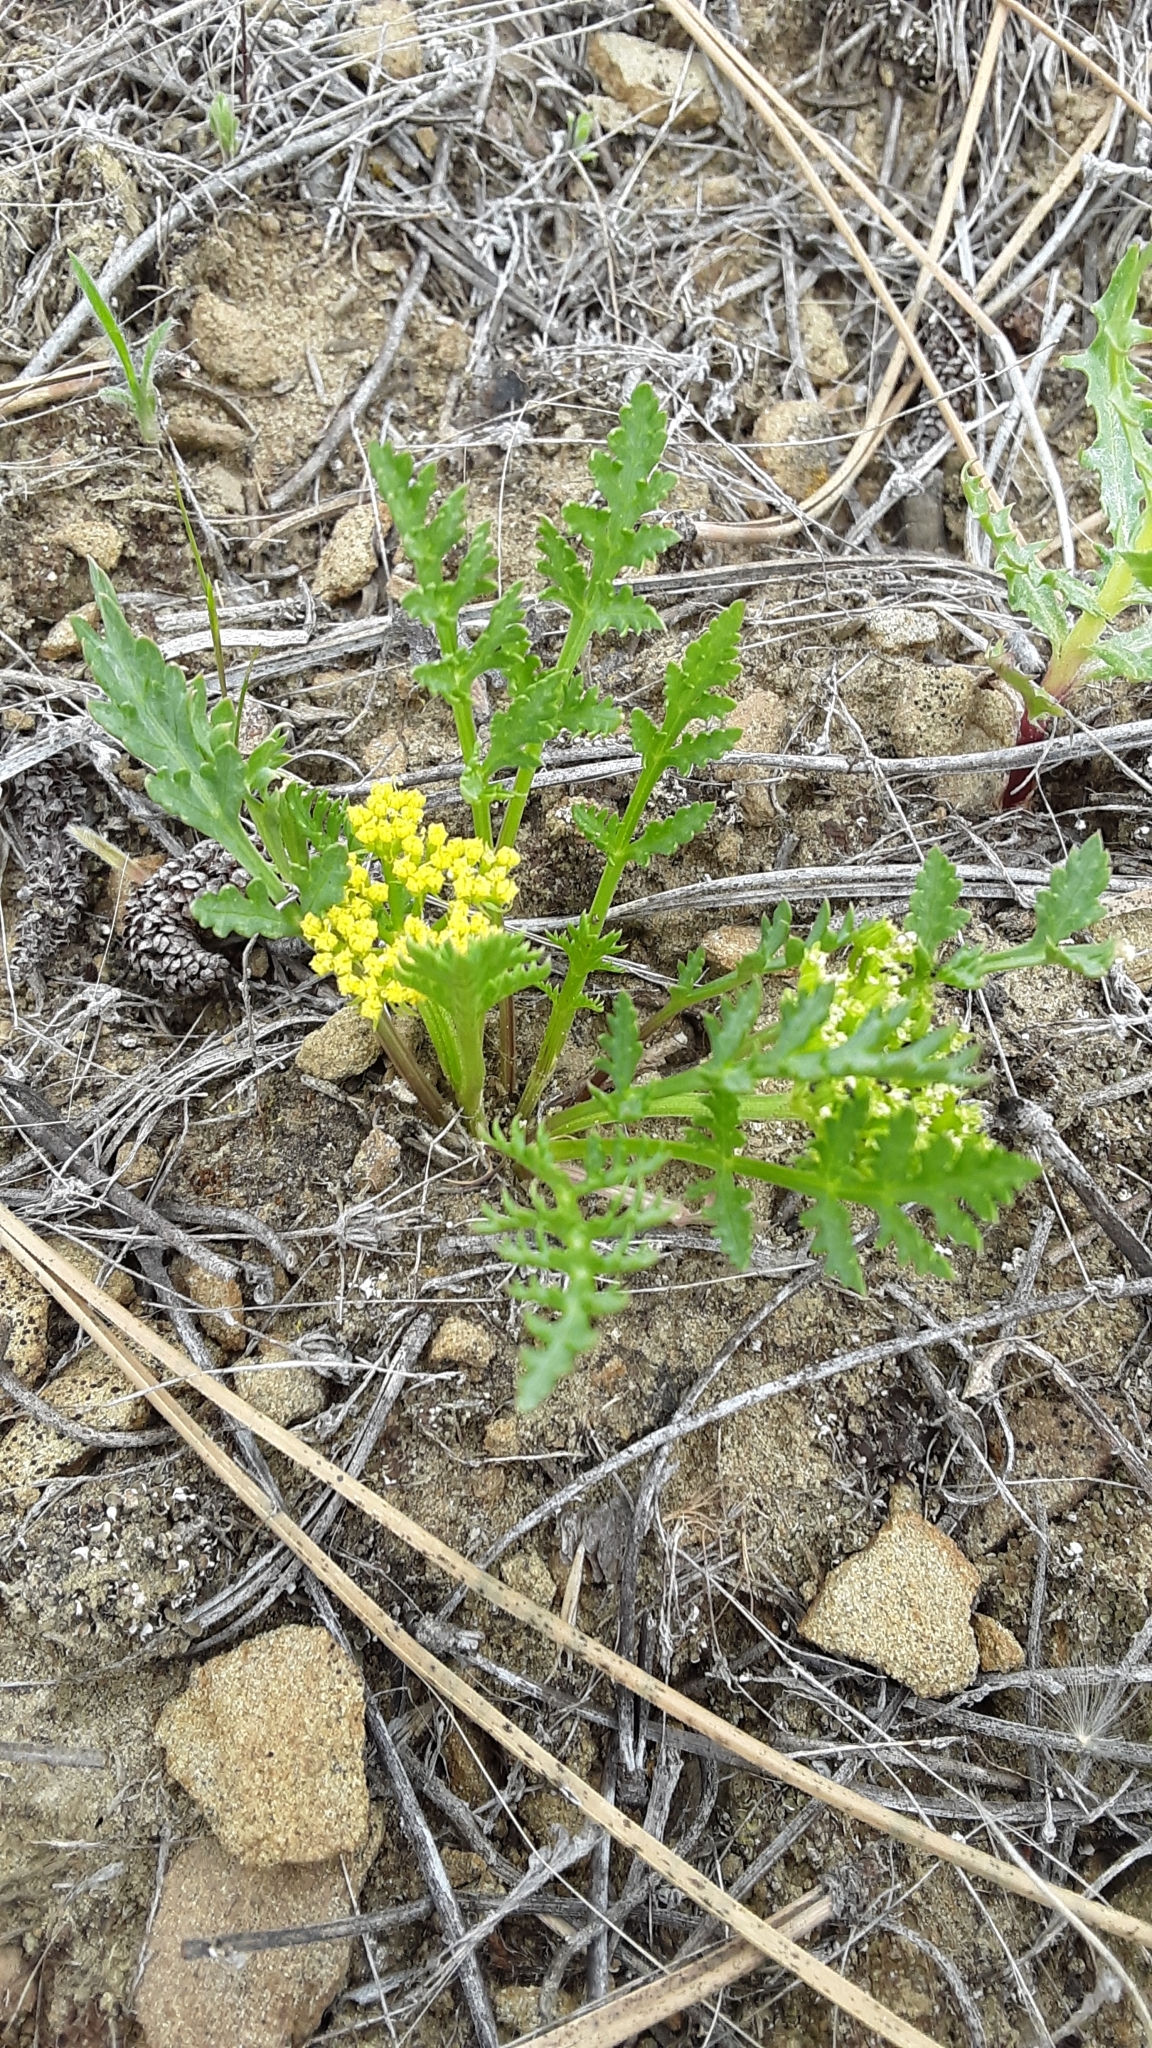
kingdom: Plantae
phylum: Tracheophyta
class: Magnoliopsida
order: Apiales
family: Apiaceae
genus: Musineon
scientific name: Musineon divaricatum
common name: Plains musineon
